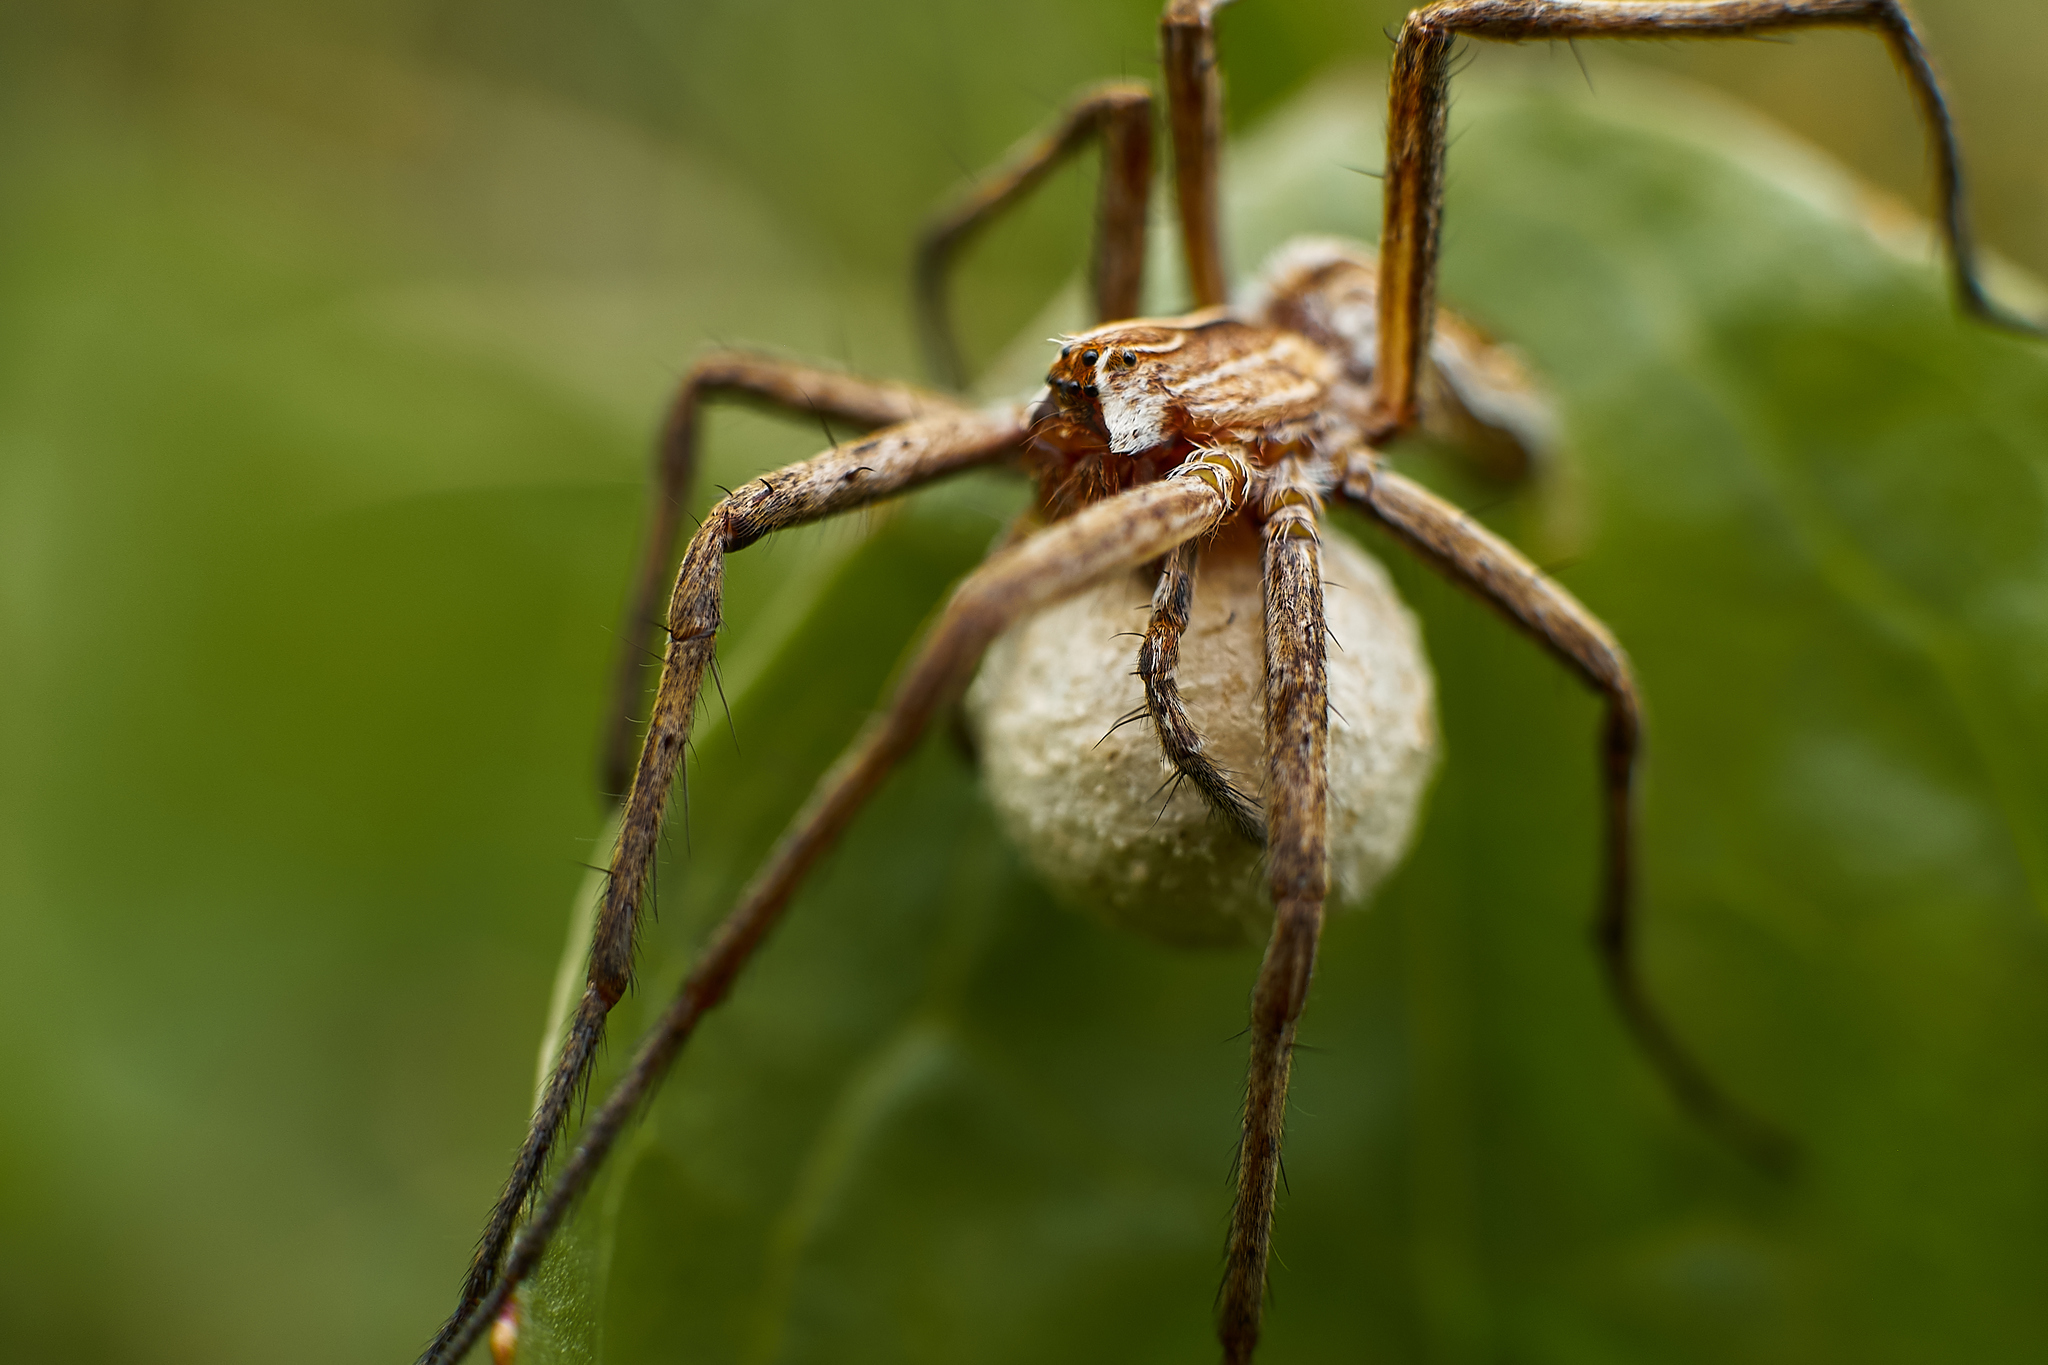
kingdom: Animalia
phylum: Arthropoda
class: Arachnida
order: Araneae
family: Pisauridae
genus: Pisaura
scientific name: Pisaura mirabilis
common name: Tent spider
